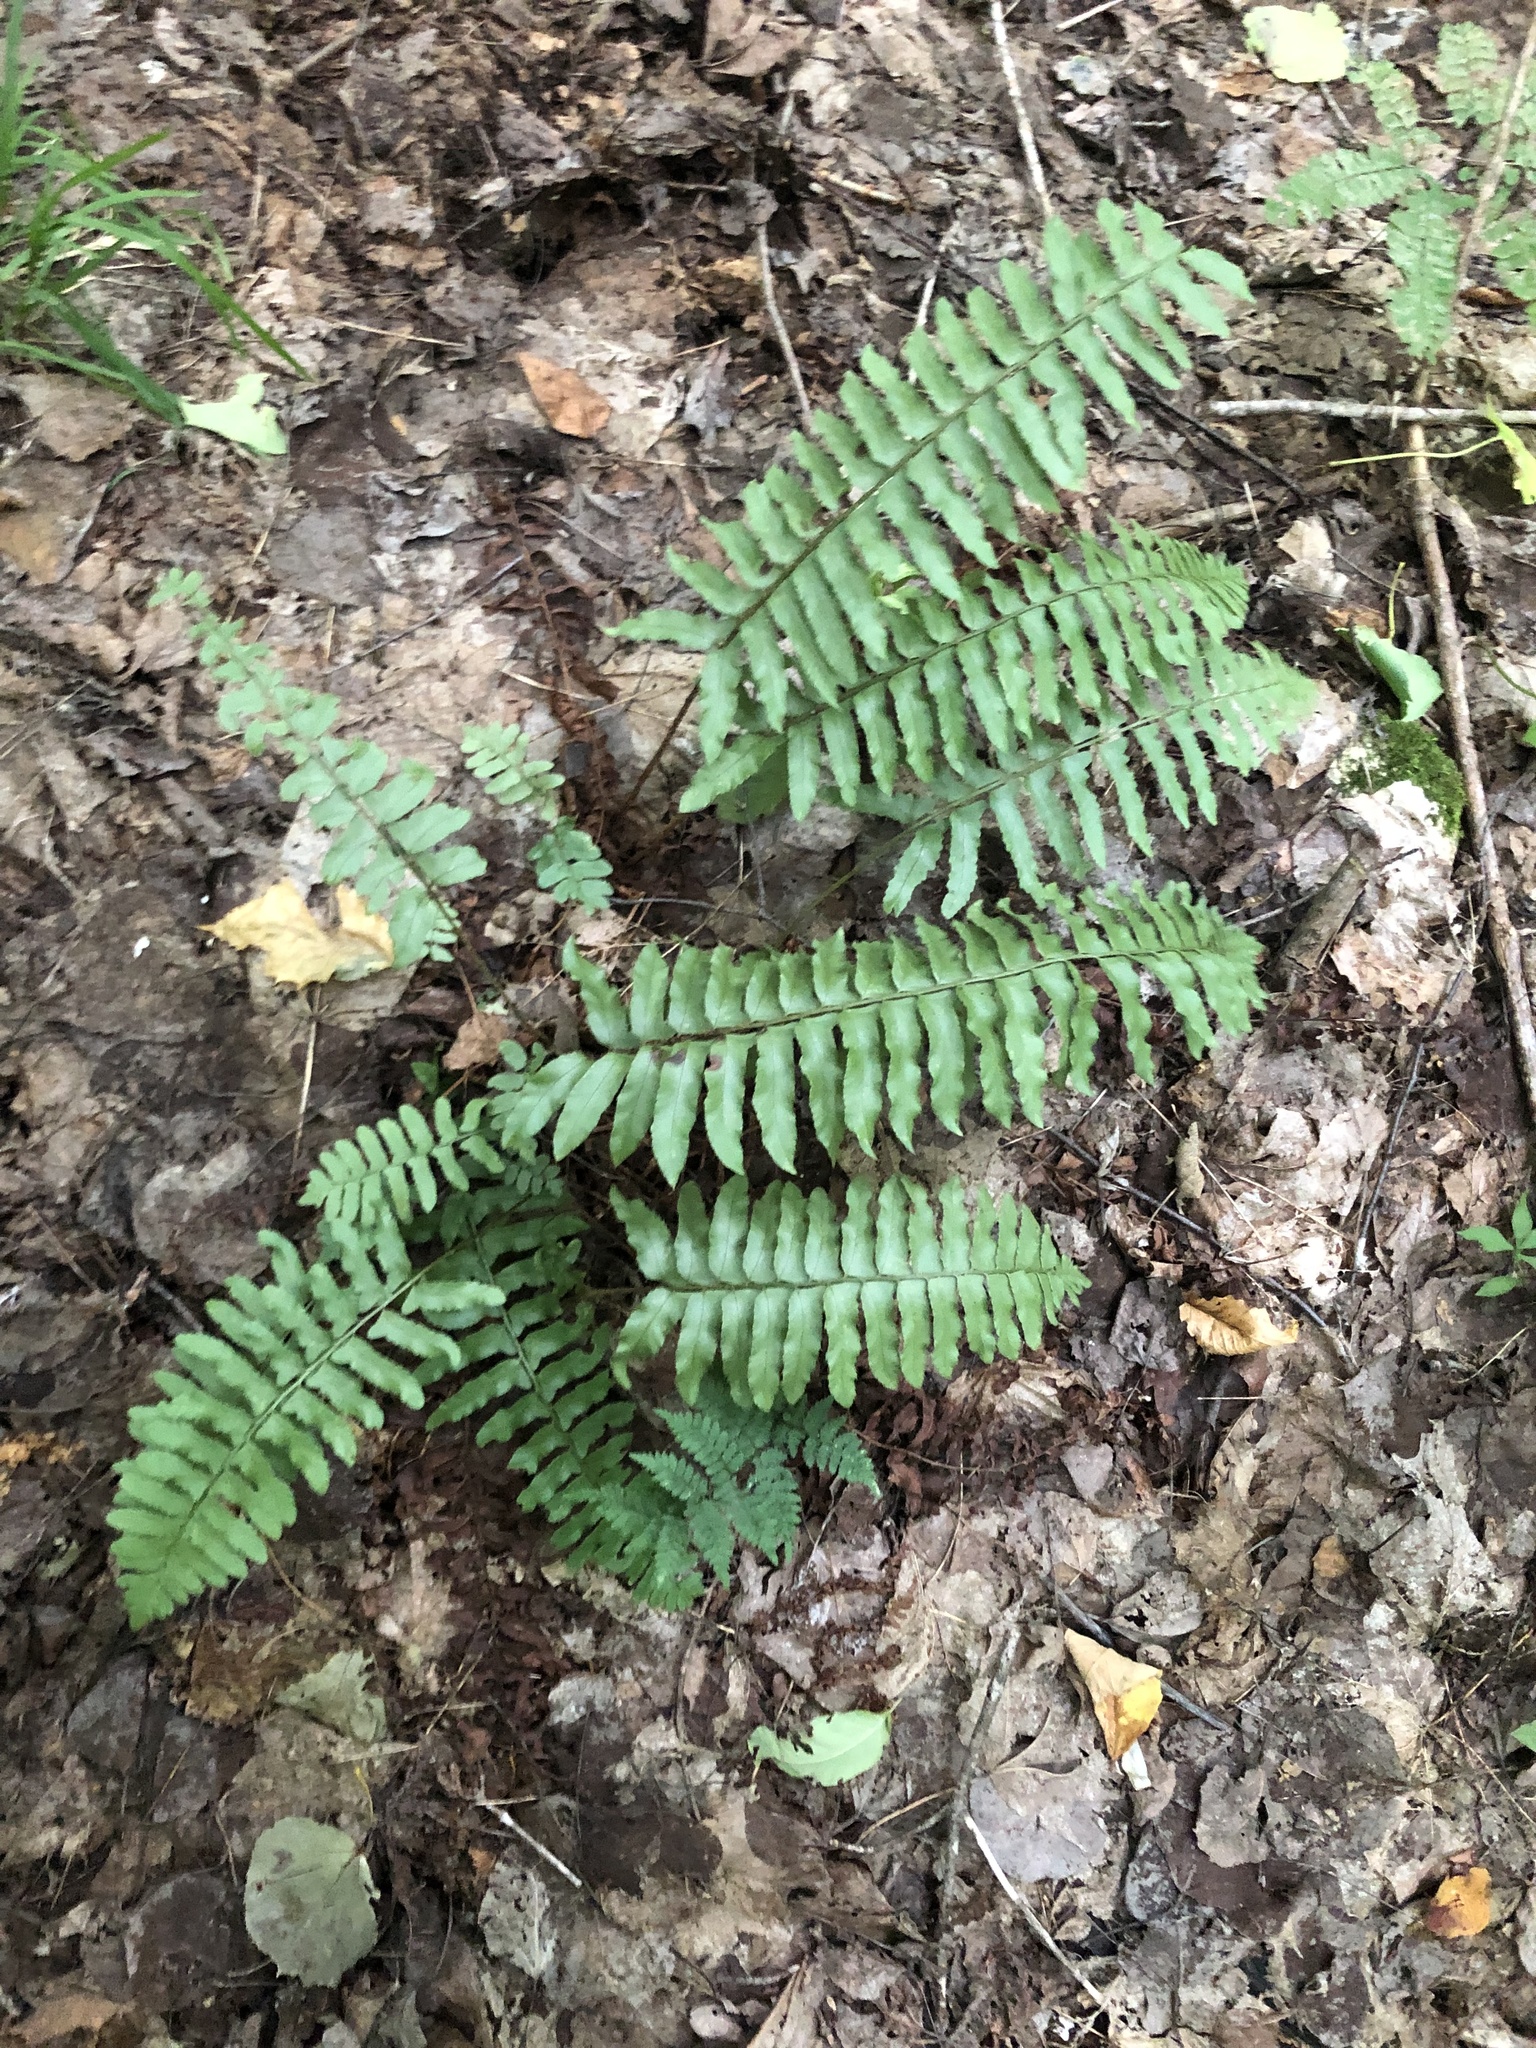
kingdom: Plantae
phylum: Tracheophyta
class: Polypodiopsida
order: Polypodiales
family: Dryopteridaceae
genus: Polystichum
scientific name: Polystichum acrostichoides
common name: Christmas fern
